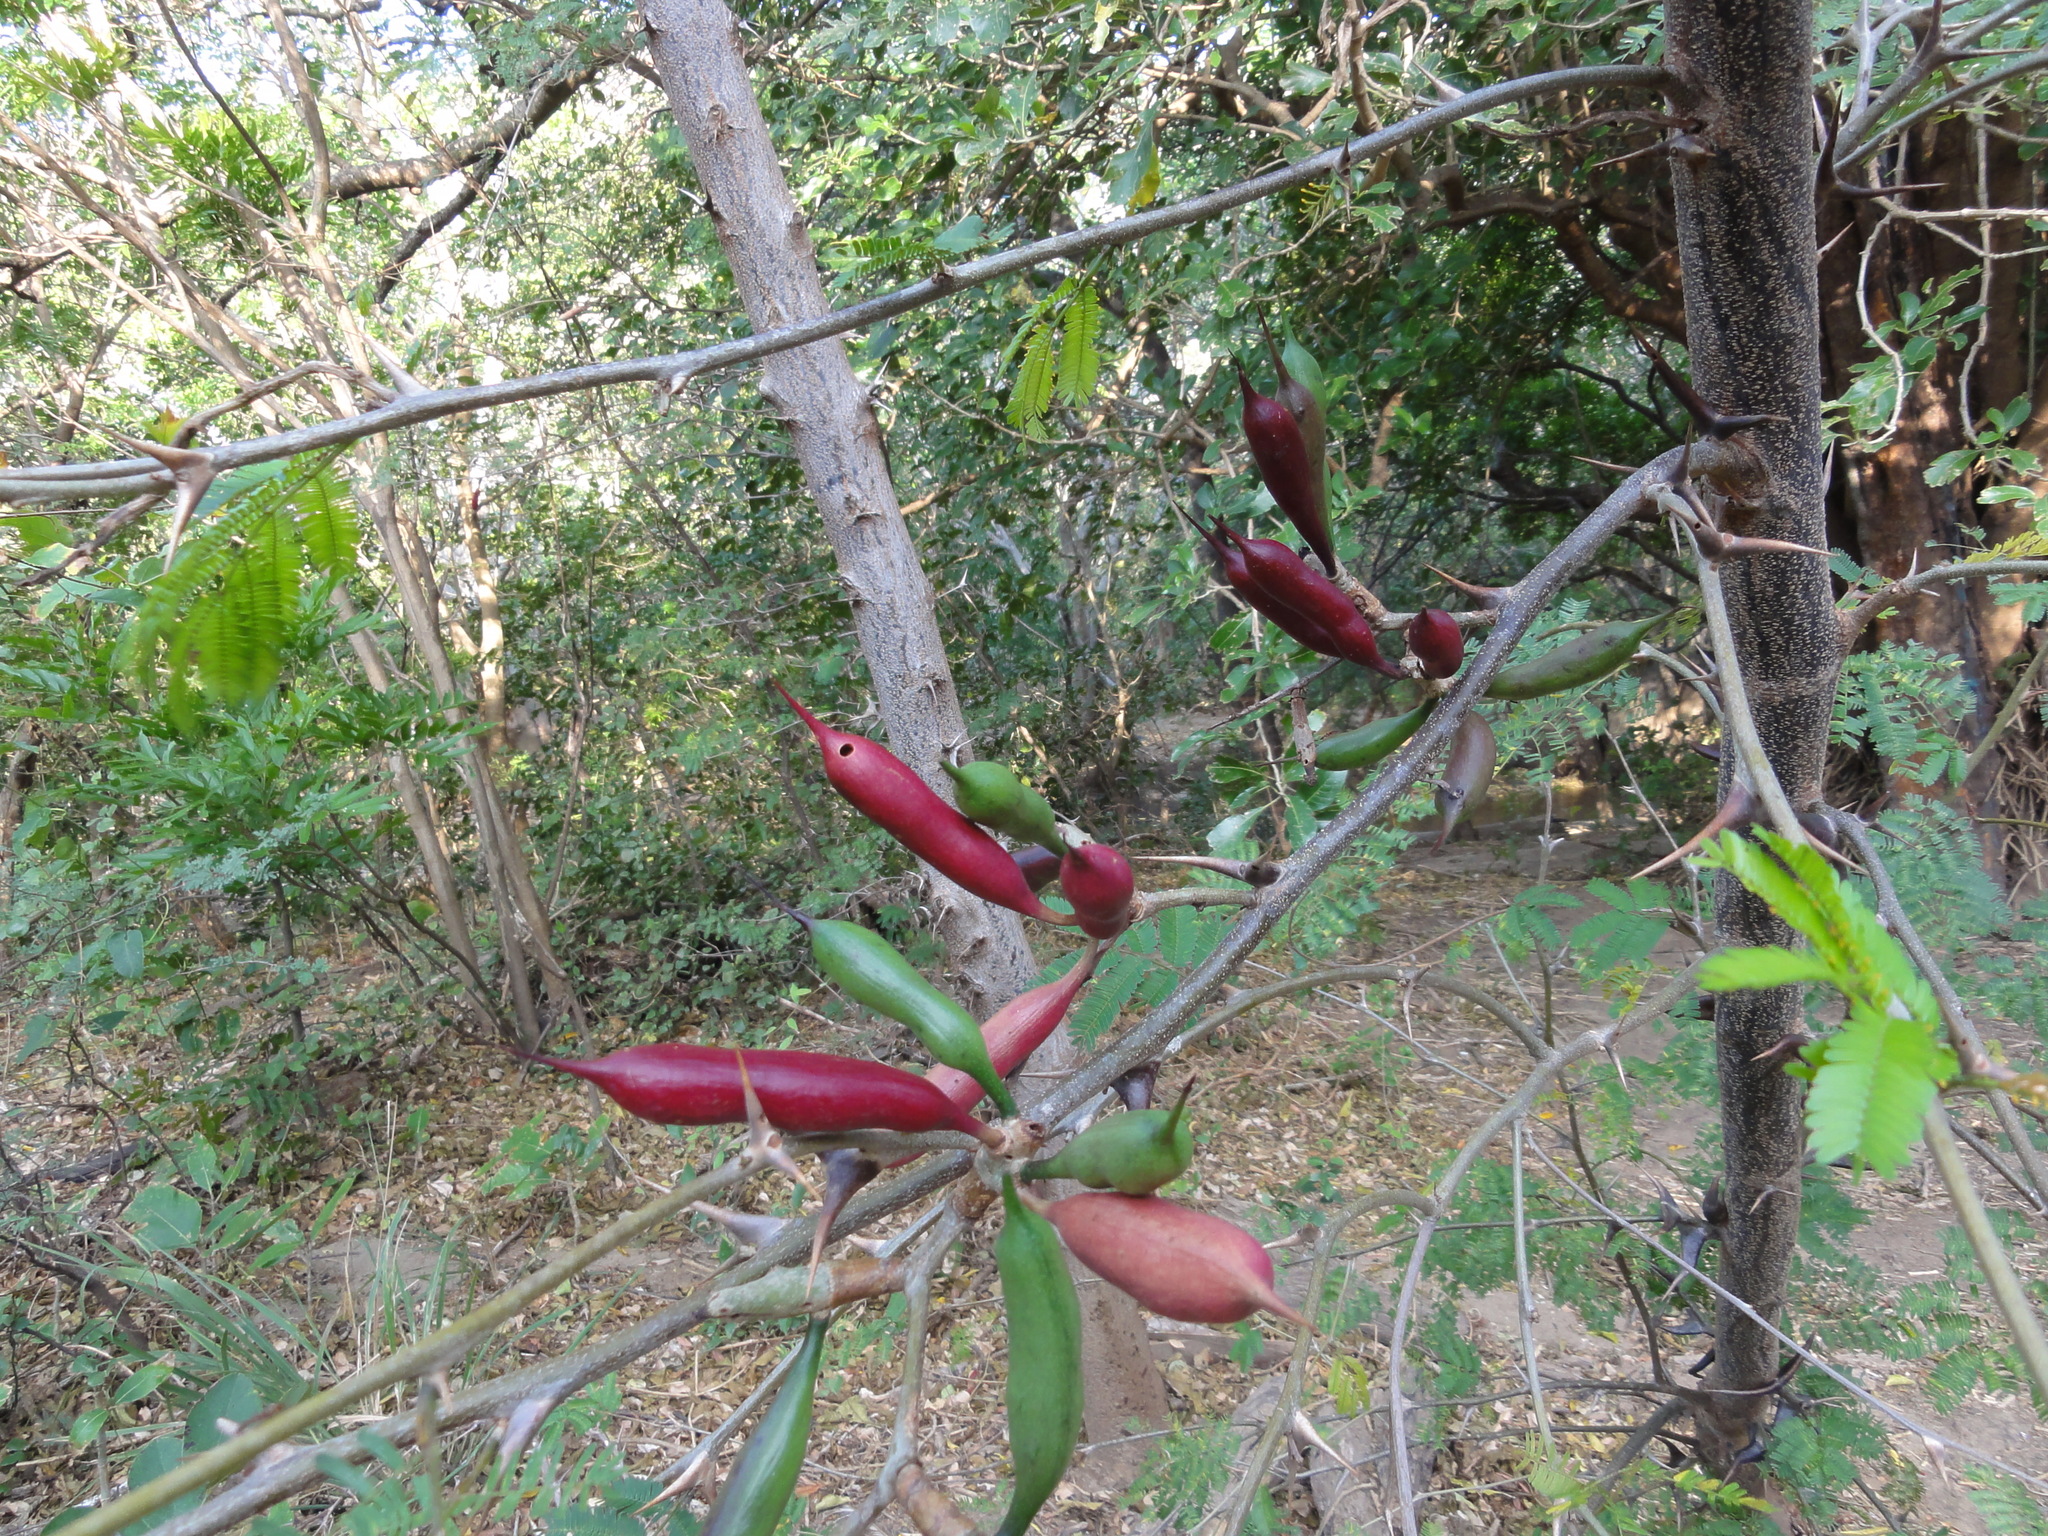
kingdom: Plantae
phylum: Tracheophyta
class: Magnoliopsida
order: Fabales
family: Fabaceae
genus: Vachellia
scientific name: Vachellia constricta
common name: Mescat acacia
